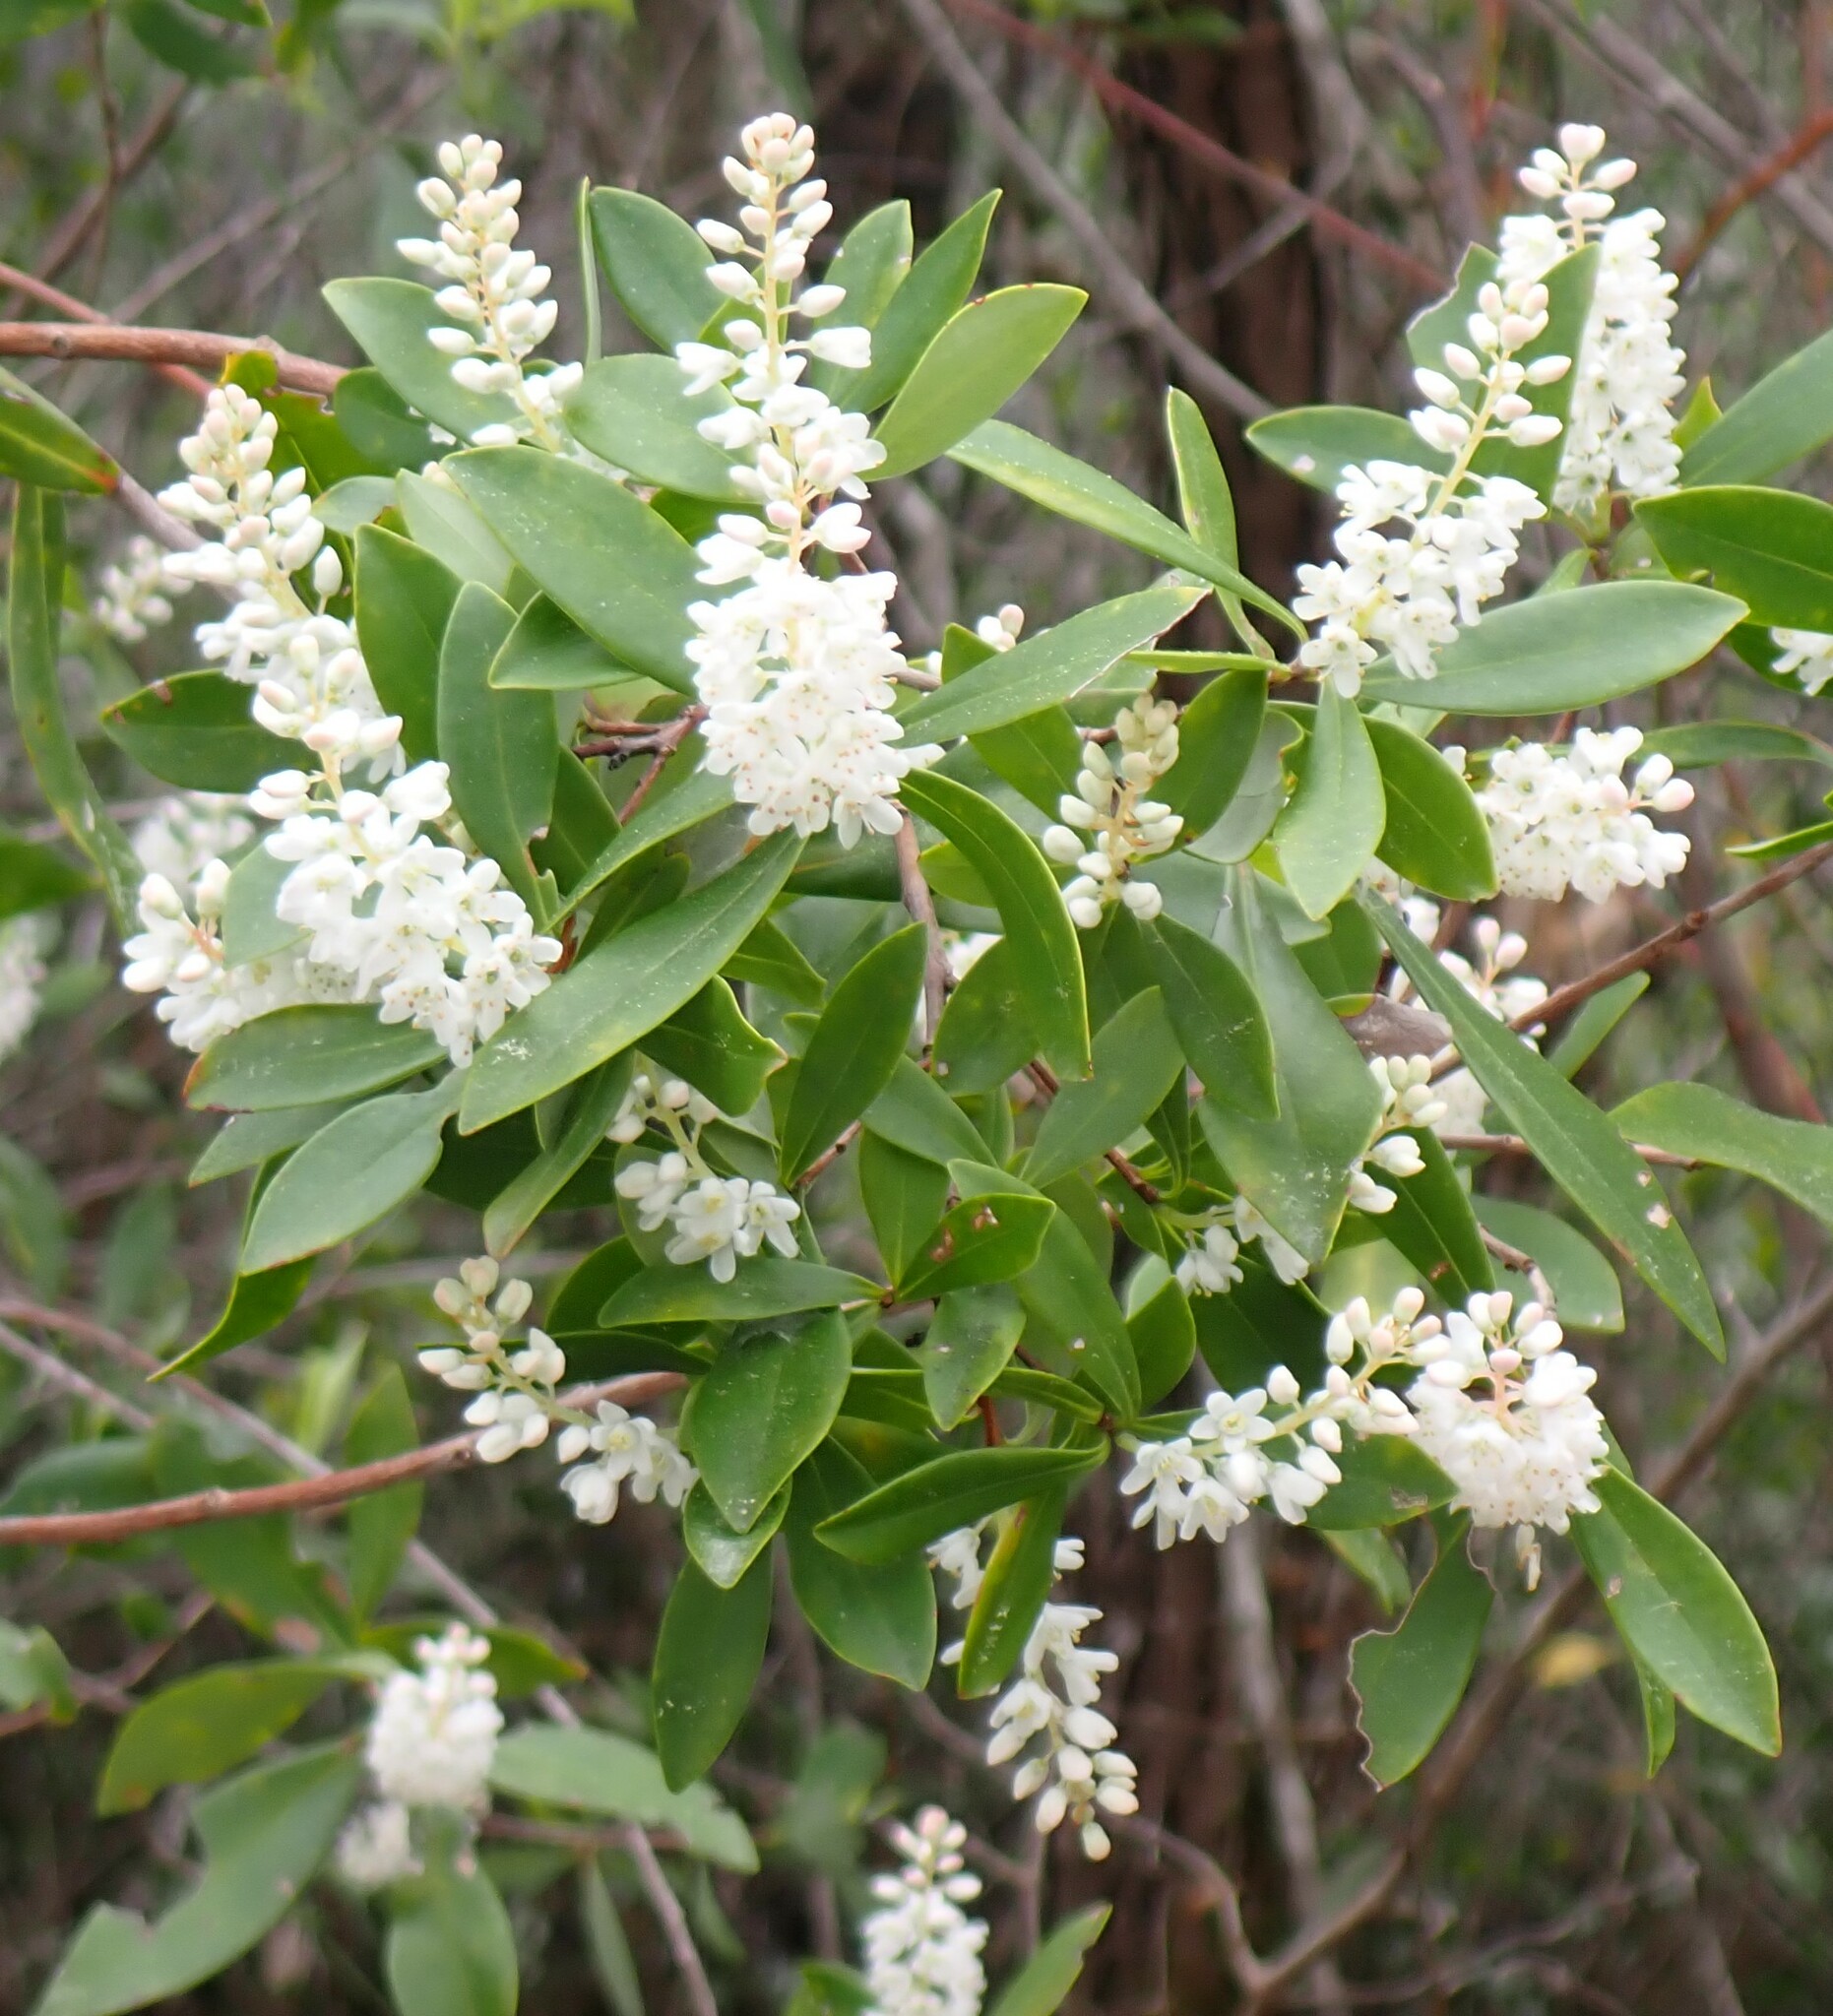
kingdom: Plantae
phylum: Tracheophyta
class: Magnoliopsida
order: Ericales
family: Cyrillaceae
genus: Cliftonia
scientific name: Cliftonia monophylla
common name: Titi
